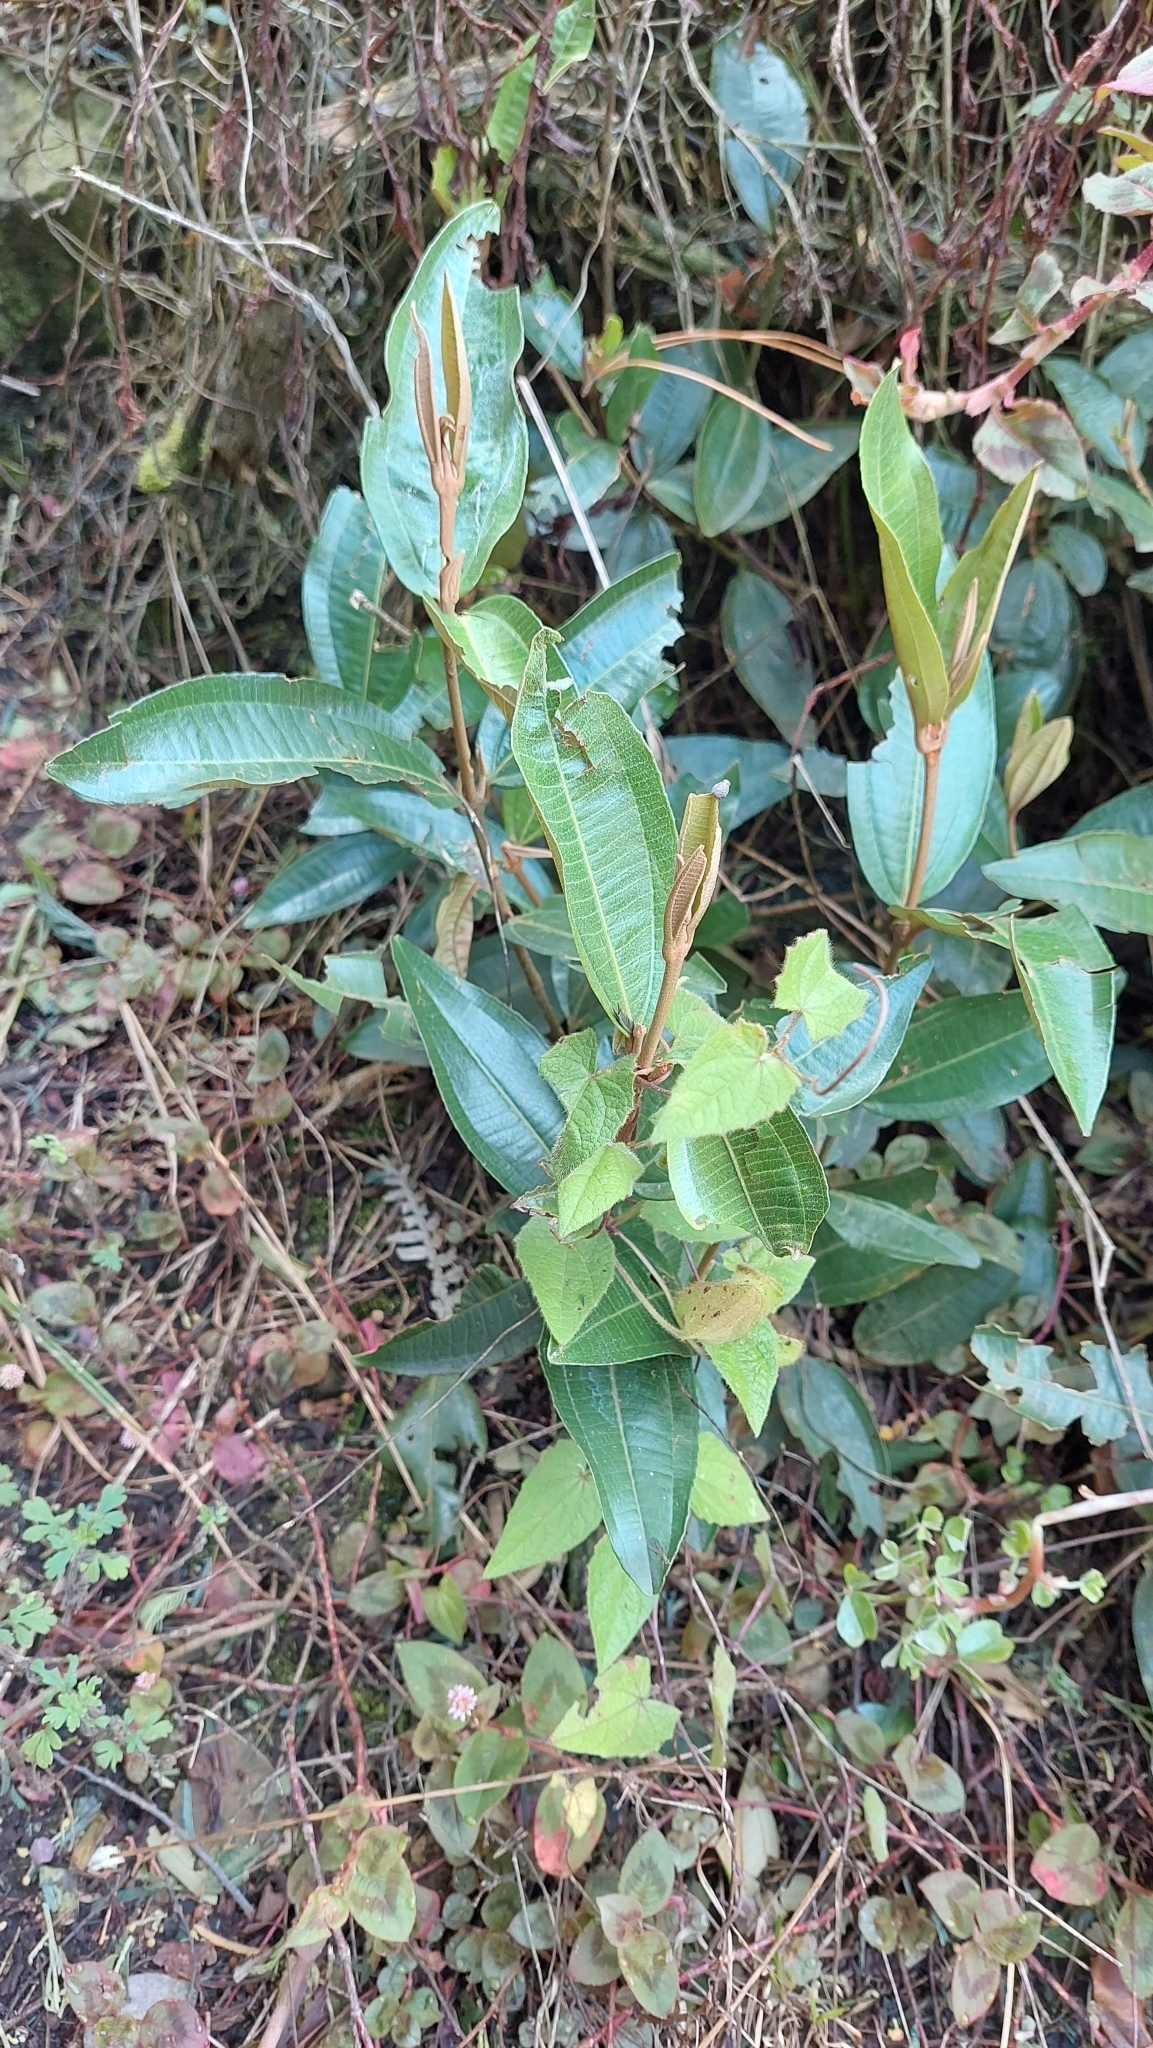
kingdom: Plantae
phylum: Tracheophyta
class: Magnoliopsida
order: Myrtales
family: Melastomataceae
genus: Miconia
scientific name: Miconia squamulosa
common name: Squamulose maya
